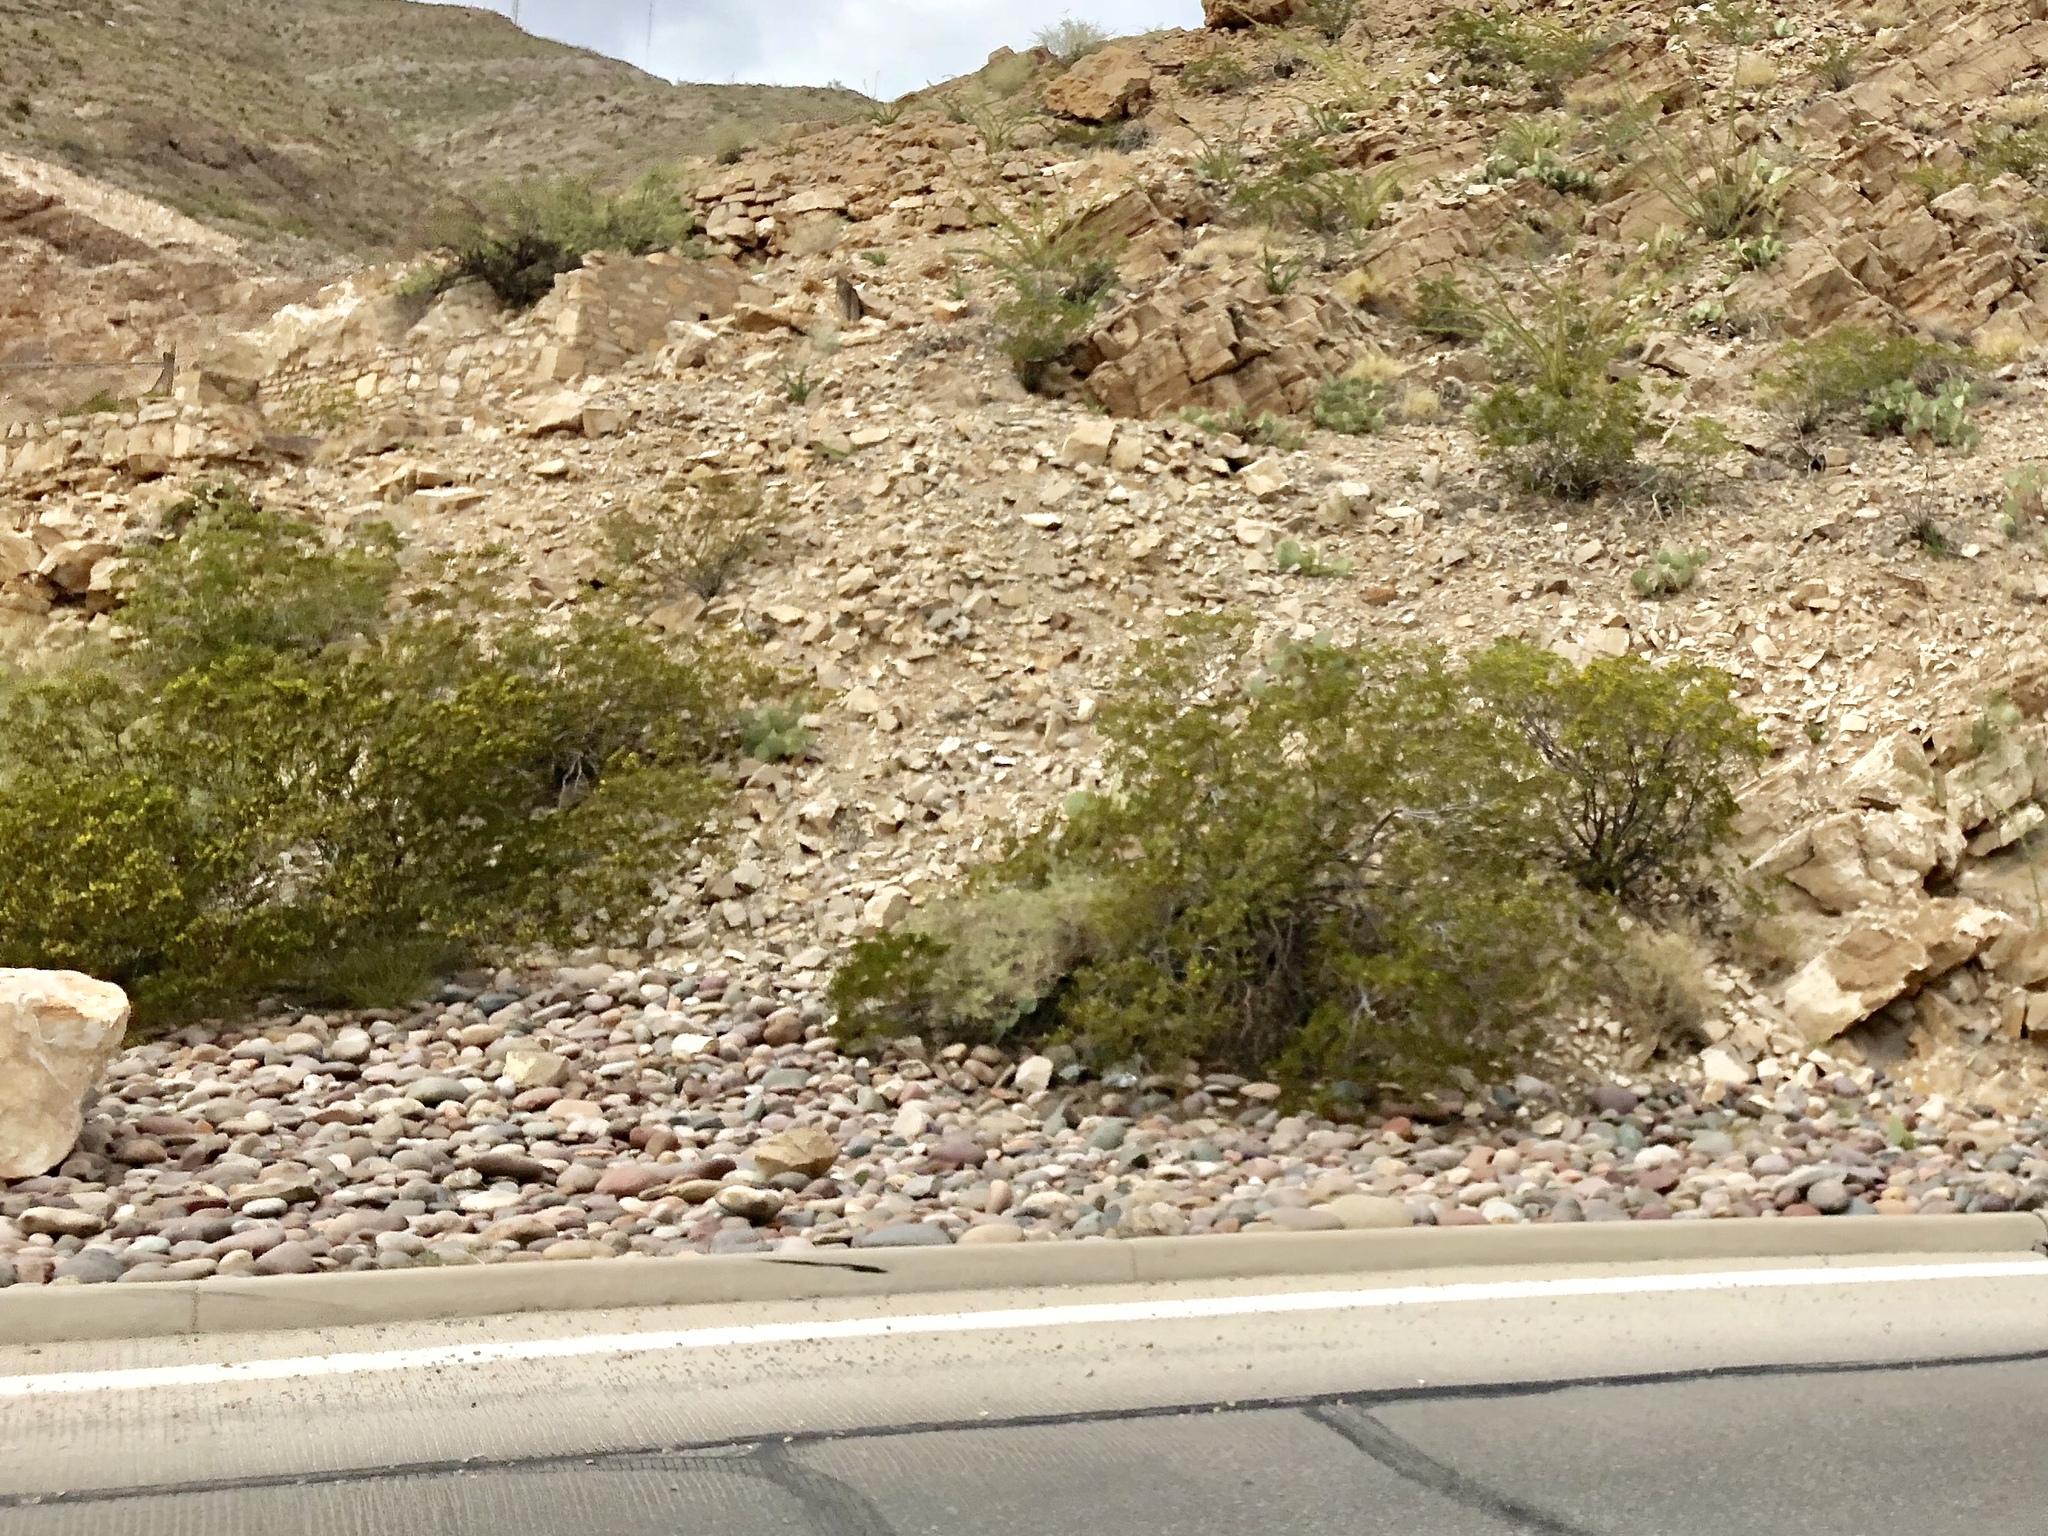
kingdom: Plantae
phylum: Tracheophyta
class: Magnoliopsida
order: Zygophyllales
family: Zygophyllaceae
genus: Larrea
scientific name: Larrea tridentata
